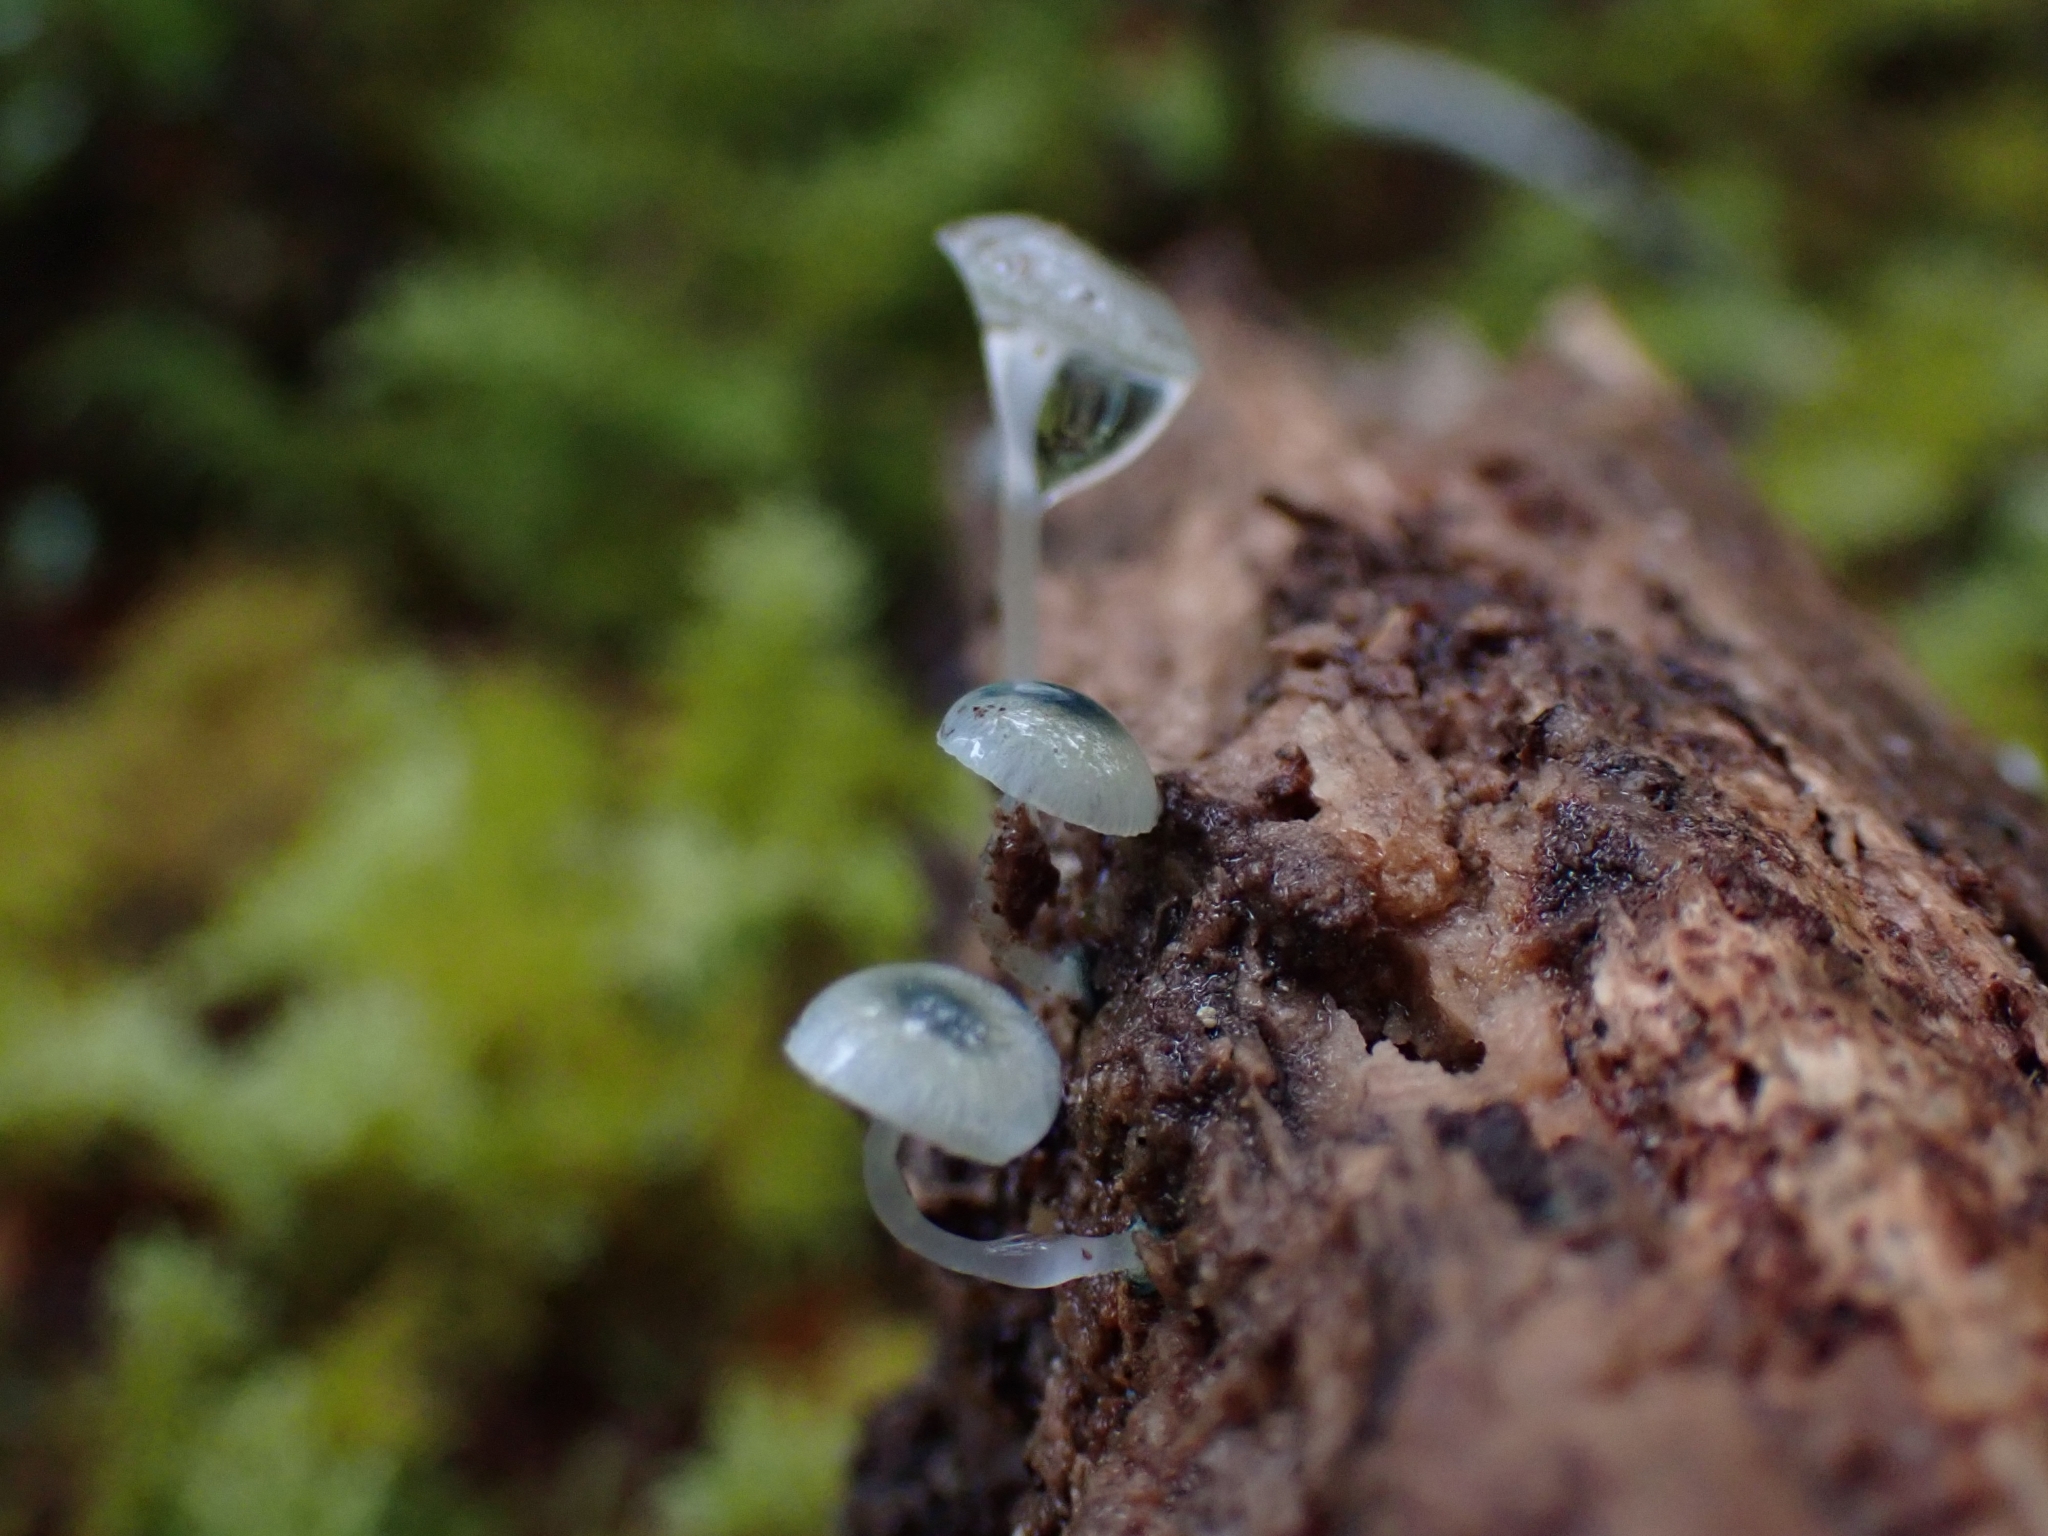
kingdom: Fungi
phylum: Basidiomycota
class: Agaricomycetes
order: Agaricales
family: Mycenaceae
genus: Mycena
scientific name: Mycena interrupta
